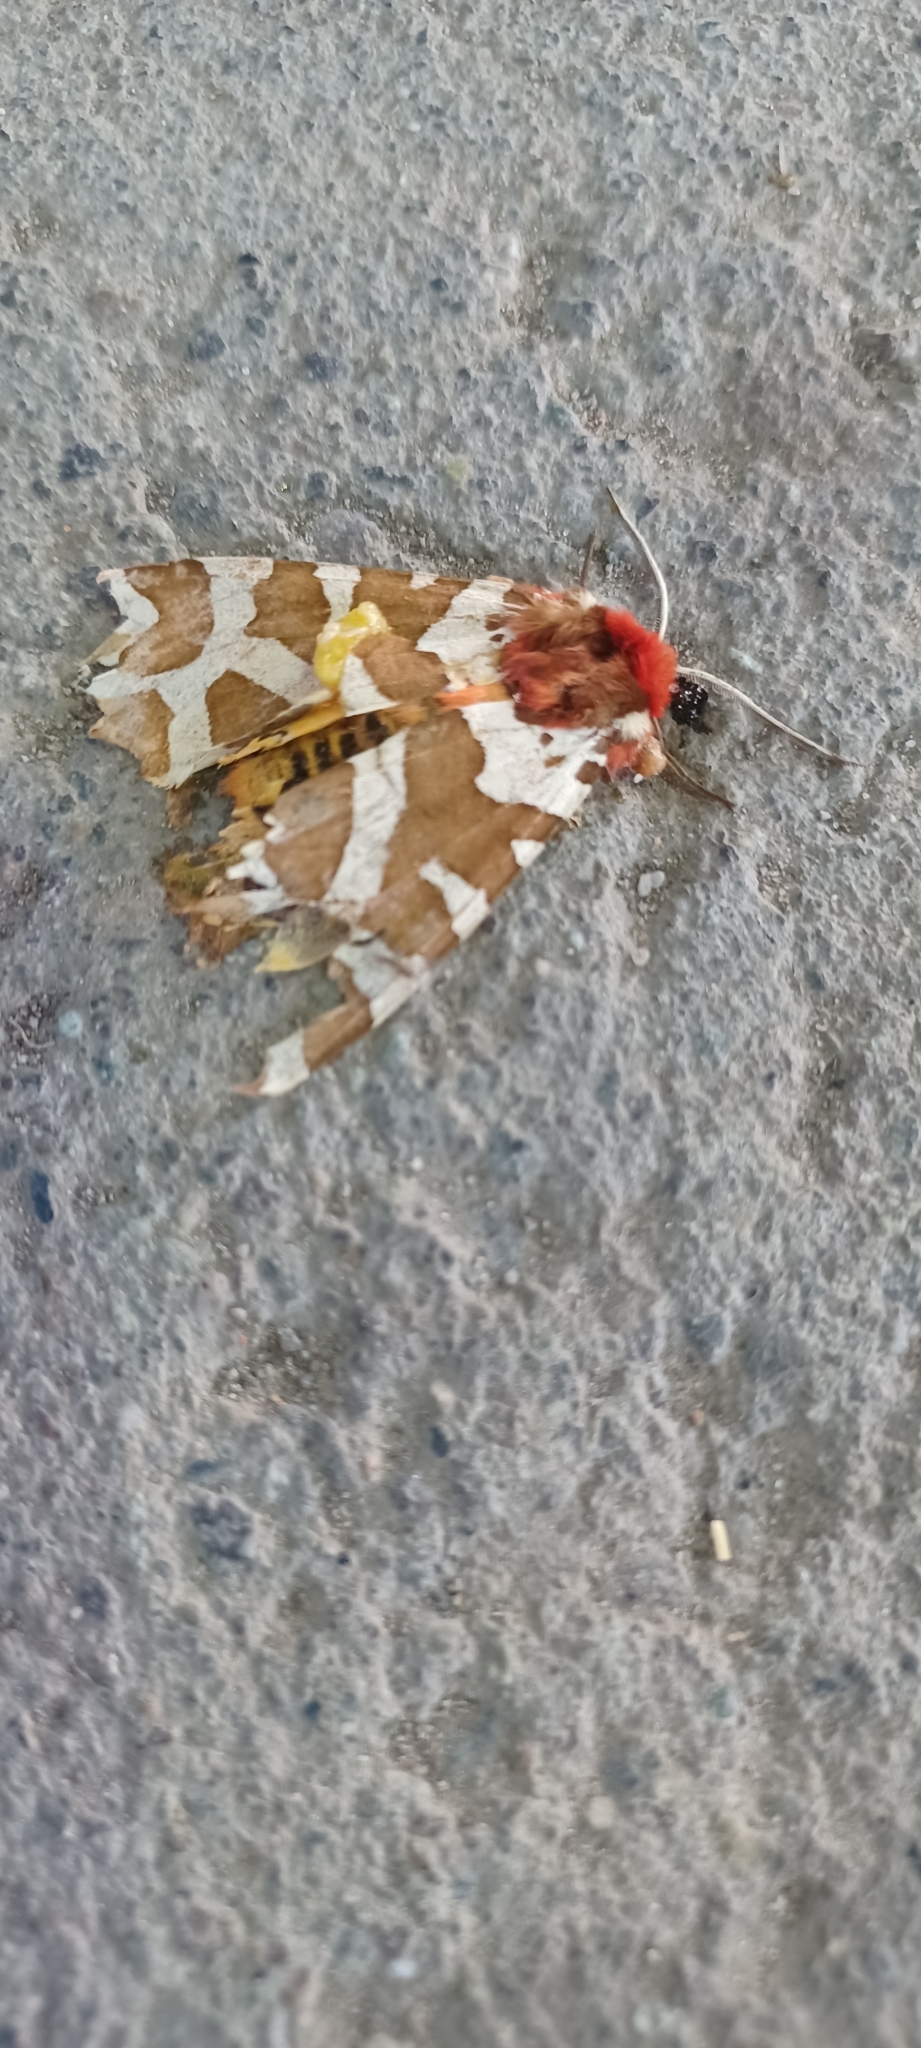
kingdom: Animalia
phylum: Arthropoda
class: Insecta
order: Lepidoptera
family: Erebidae
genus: Arctia
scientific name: Arctia caja
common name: Garden tiger
